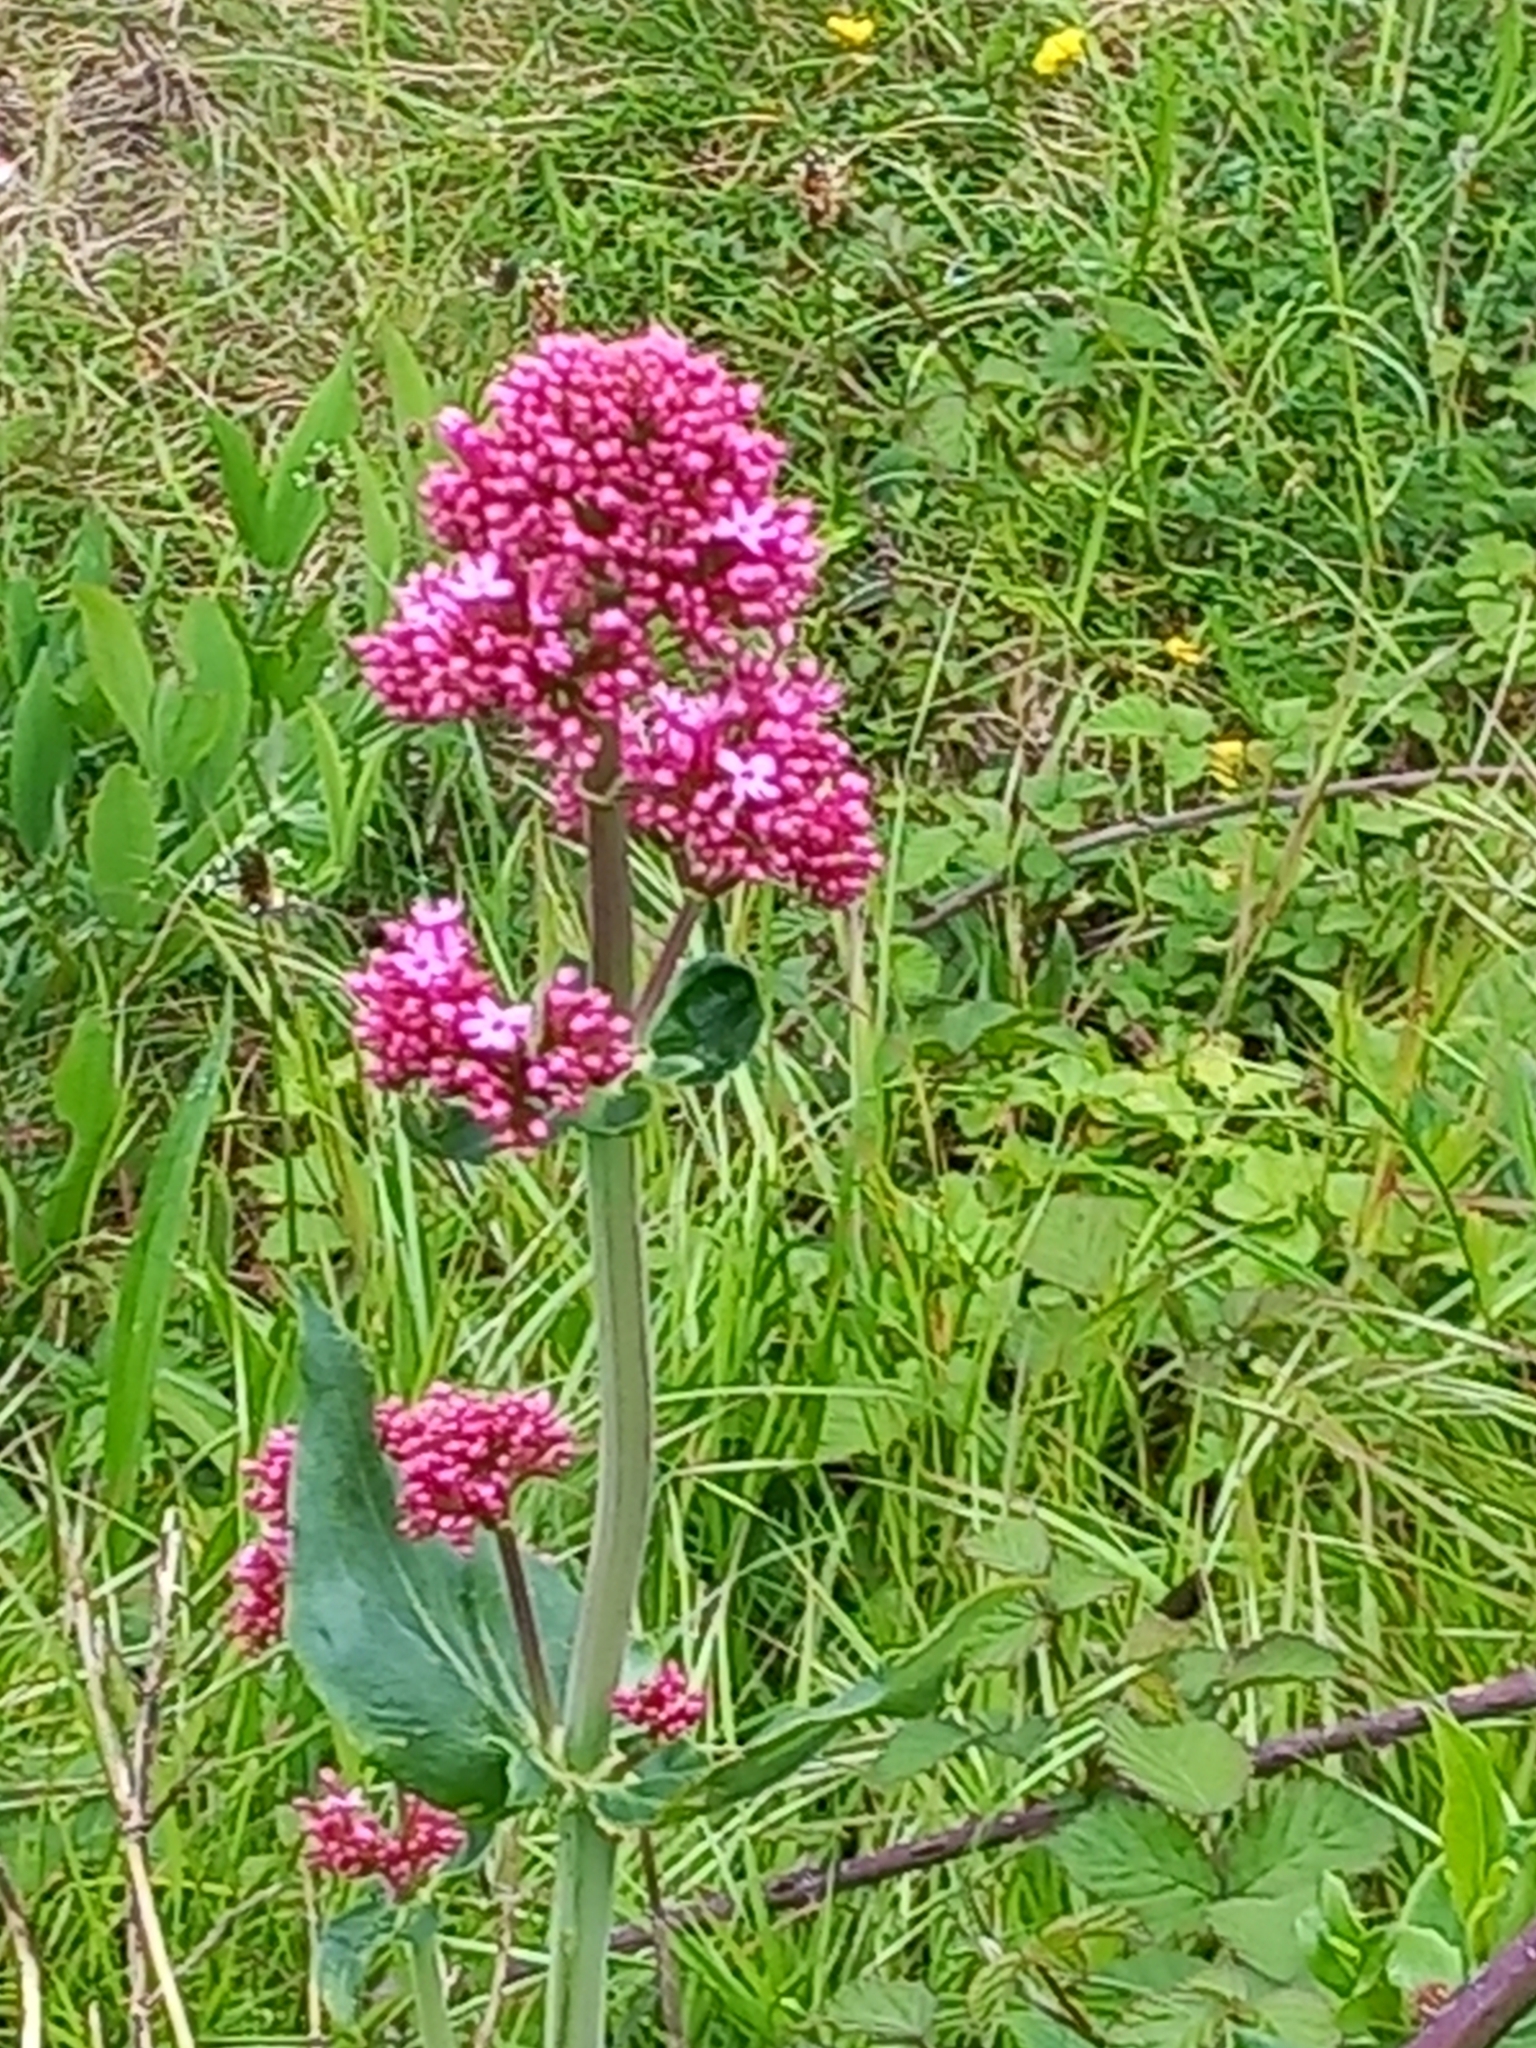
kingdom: Plantae
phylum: Tracheophyta
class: Magnoliopsida
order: Dipsacales
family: Caprifoliaceae
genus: Centranthus
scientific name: Centranthus ruber
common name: Red valerian
